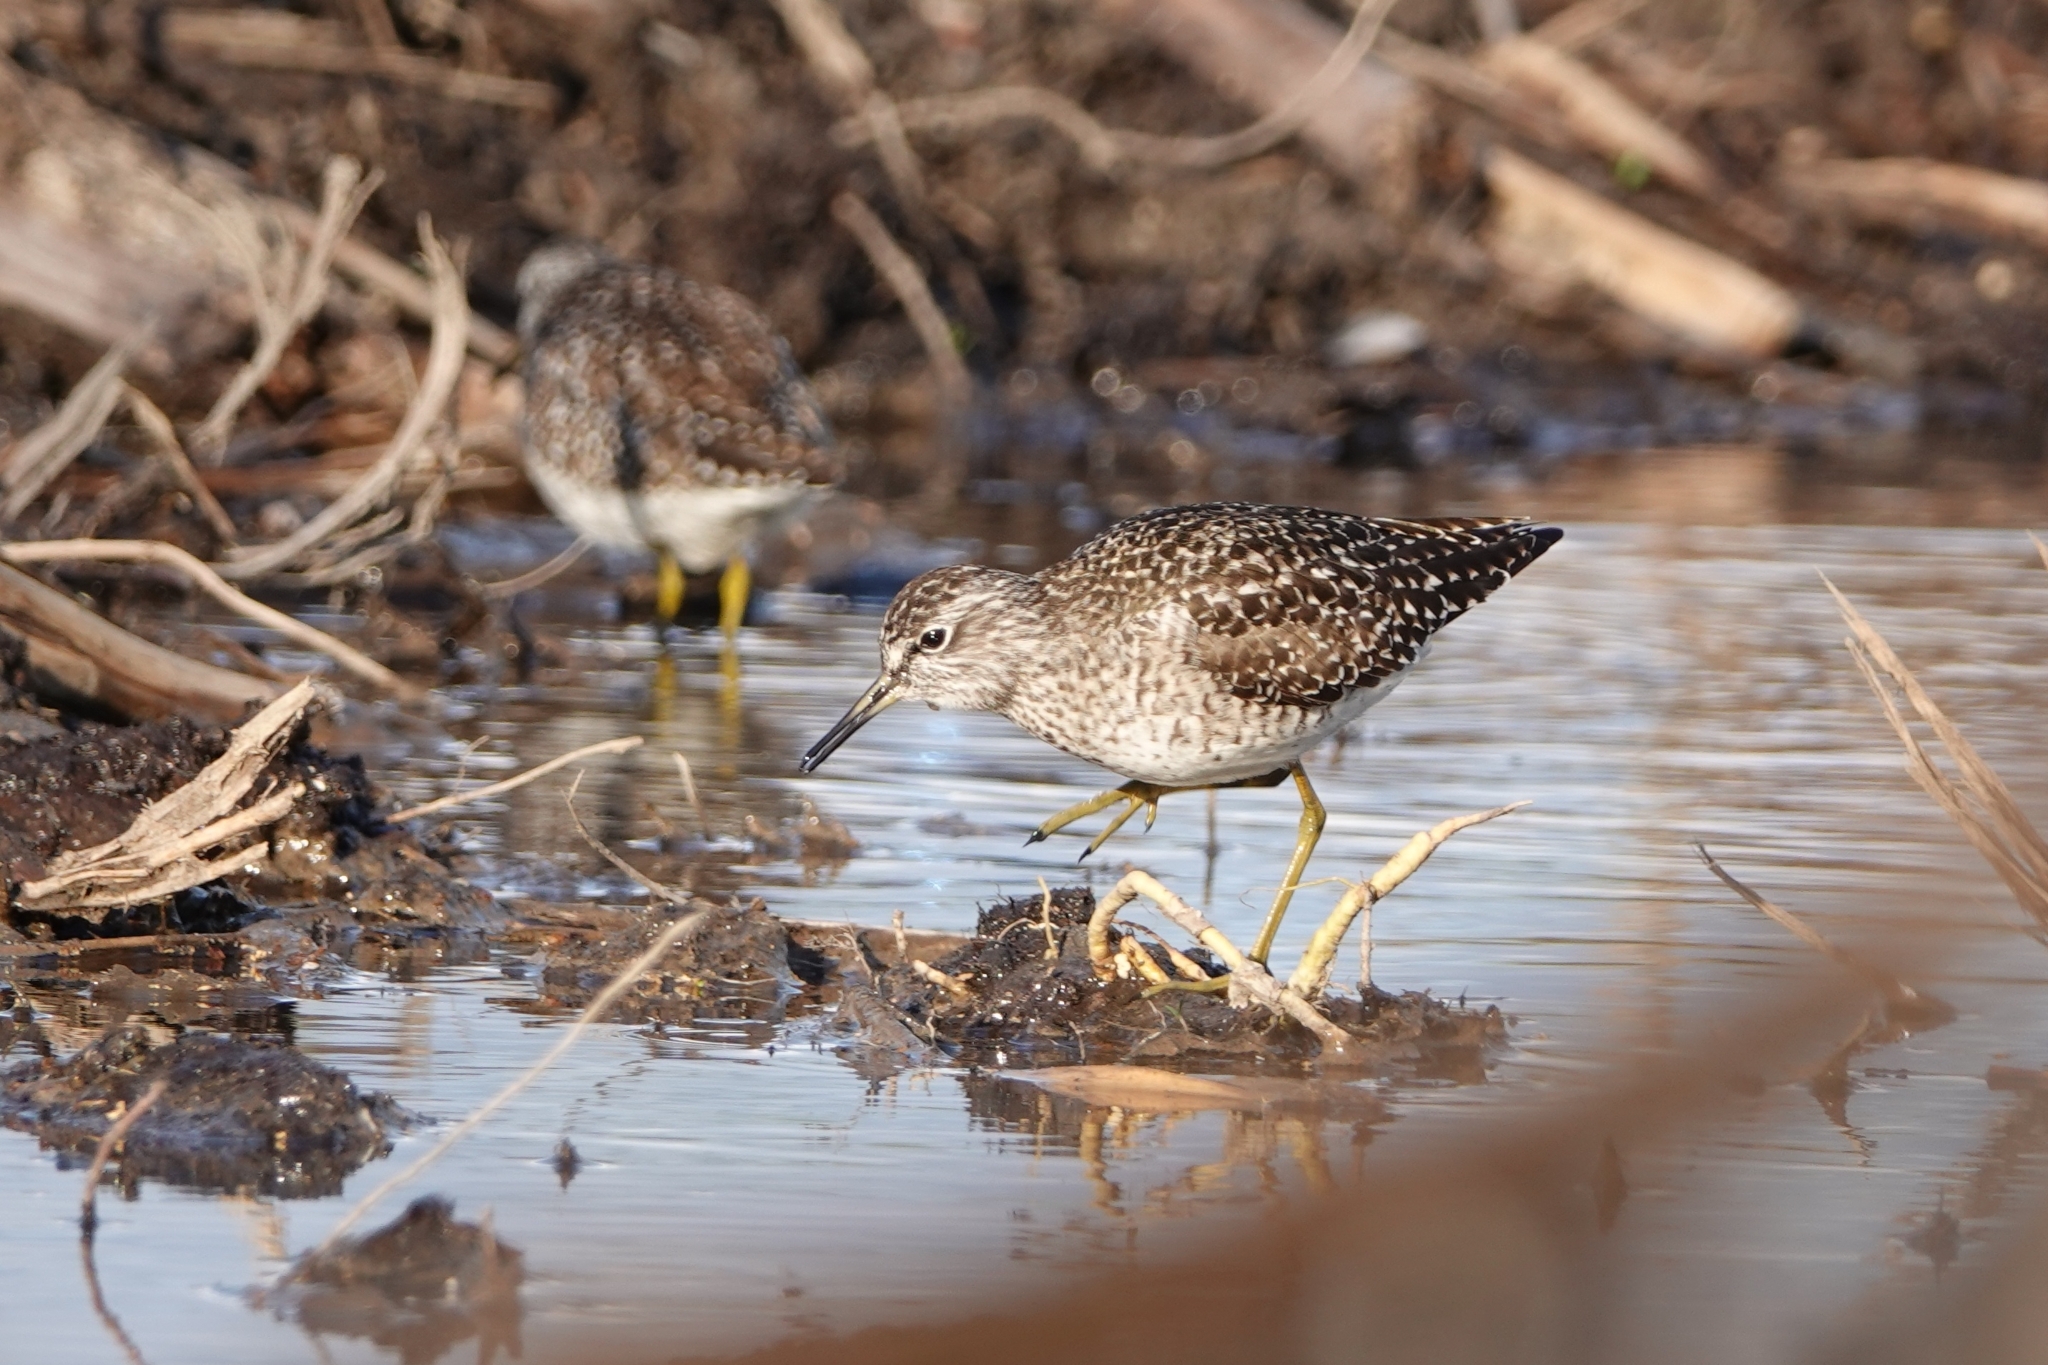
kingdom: Animalia
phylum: Chordata
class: Aves
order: Charadriiformes
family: Scolopacidae
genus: Tringa
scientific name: Tringa glareola
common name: Wood sandpiper
